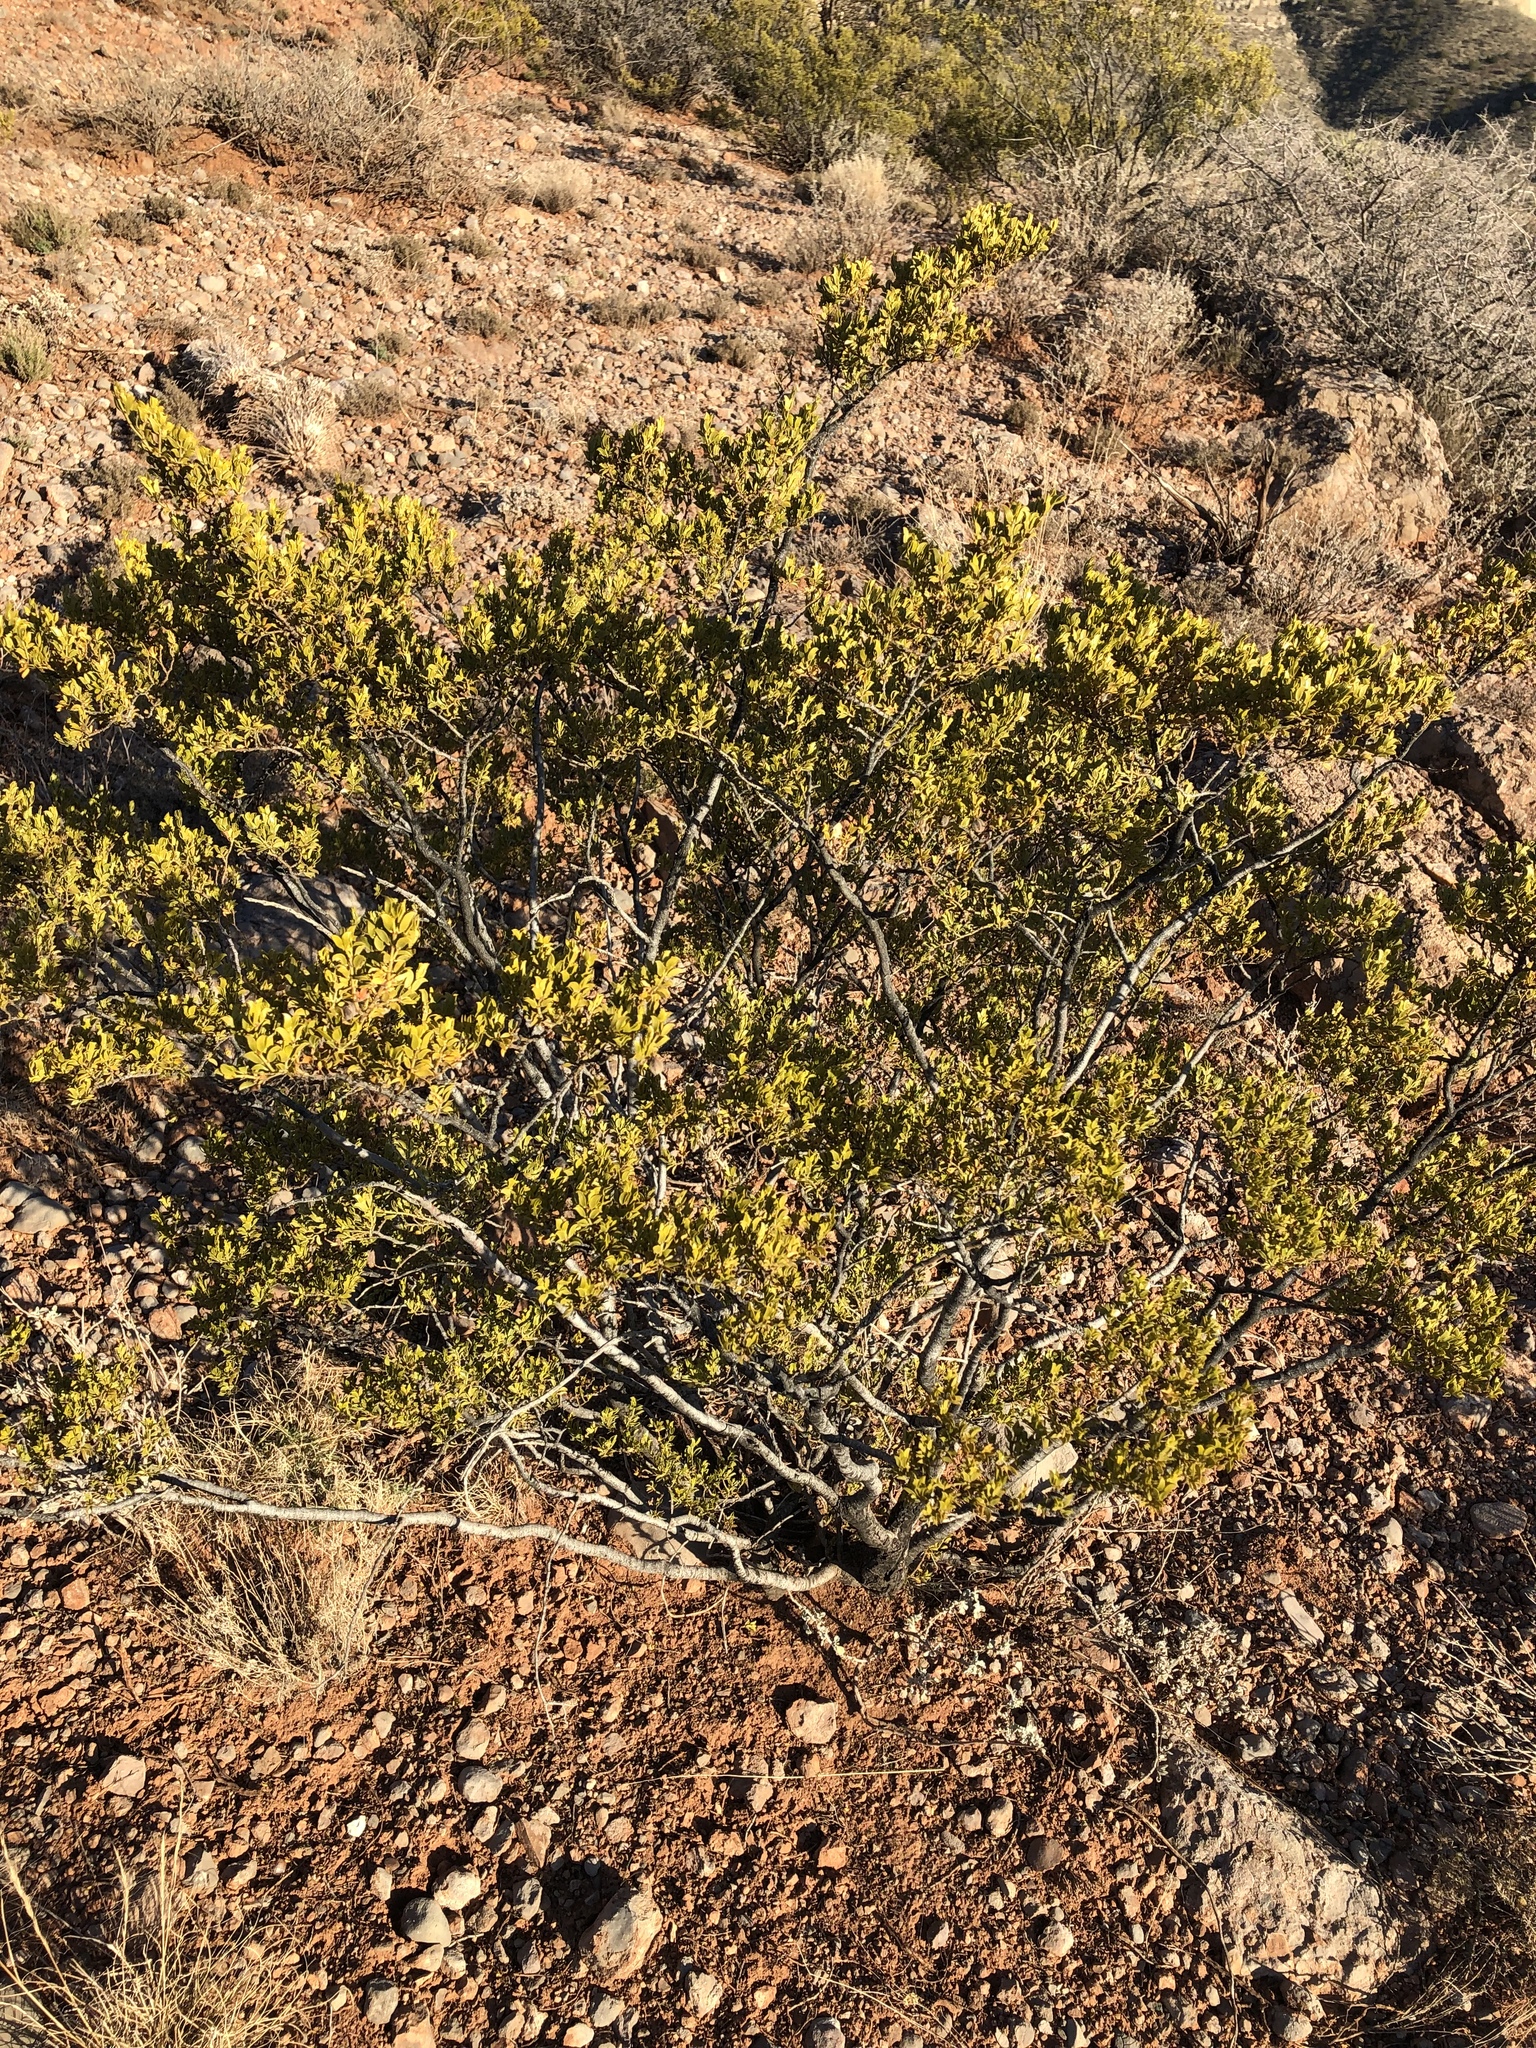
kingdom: Plantae
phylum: Tracheophyta
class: Magnoliopsida
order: Zygophyllales
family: Zygophyllaceae
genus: Larrea
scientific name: Larrea tridentata
